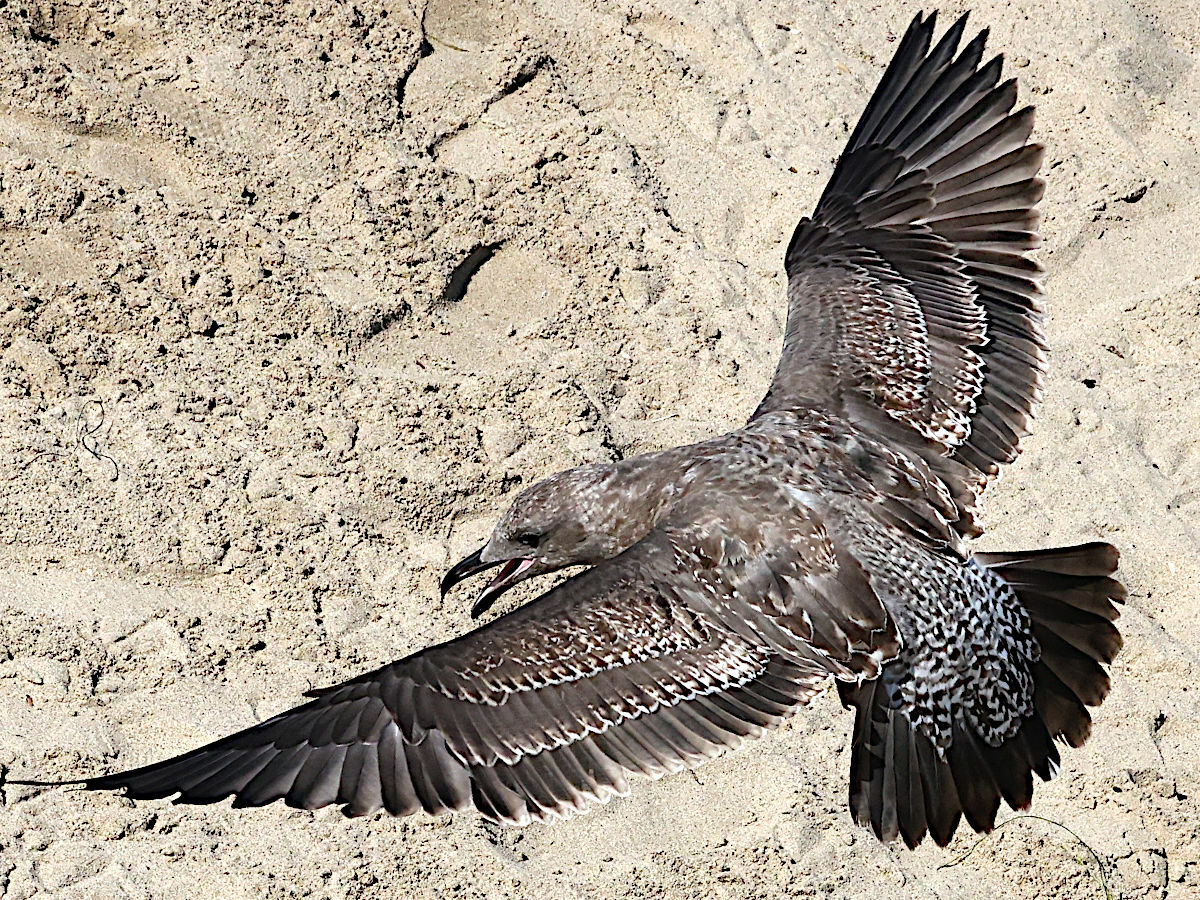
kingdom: Animalia
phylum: Chordata
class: Aves
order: Charadriiformes
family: Laridae
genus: Larus
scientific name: Larus occidentalis
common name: Western gull
